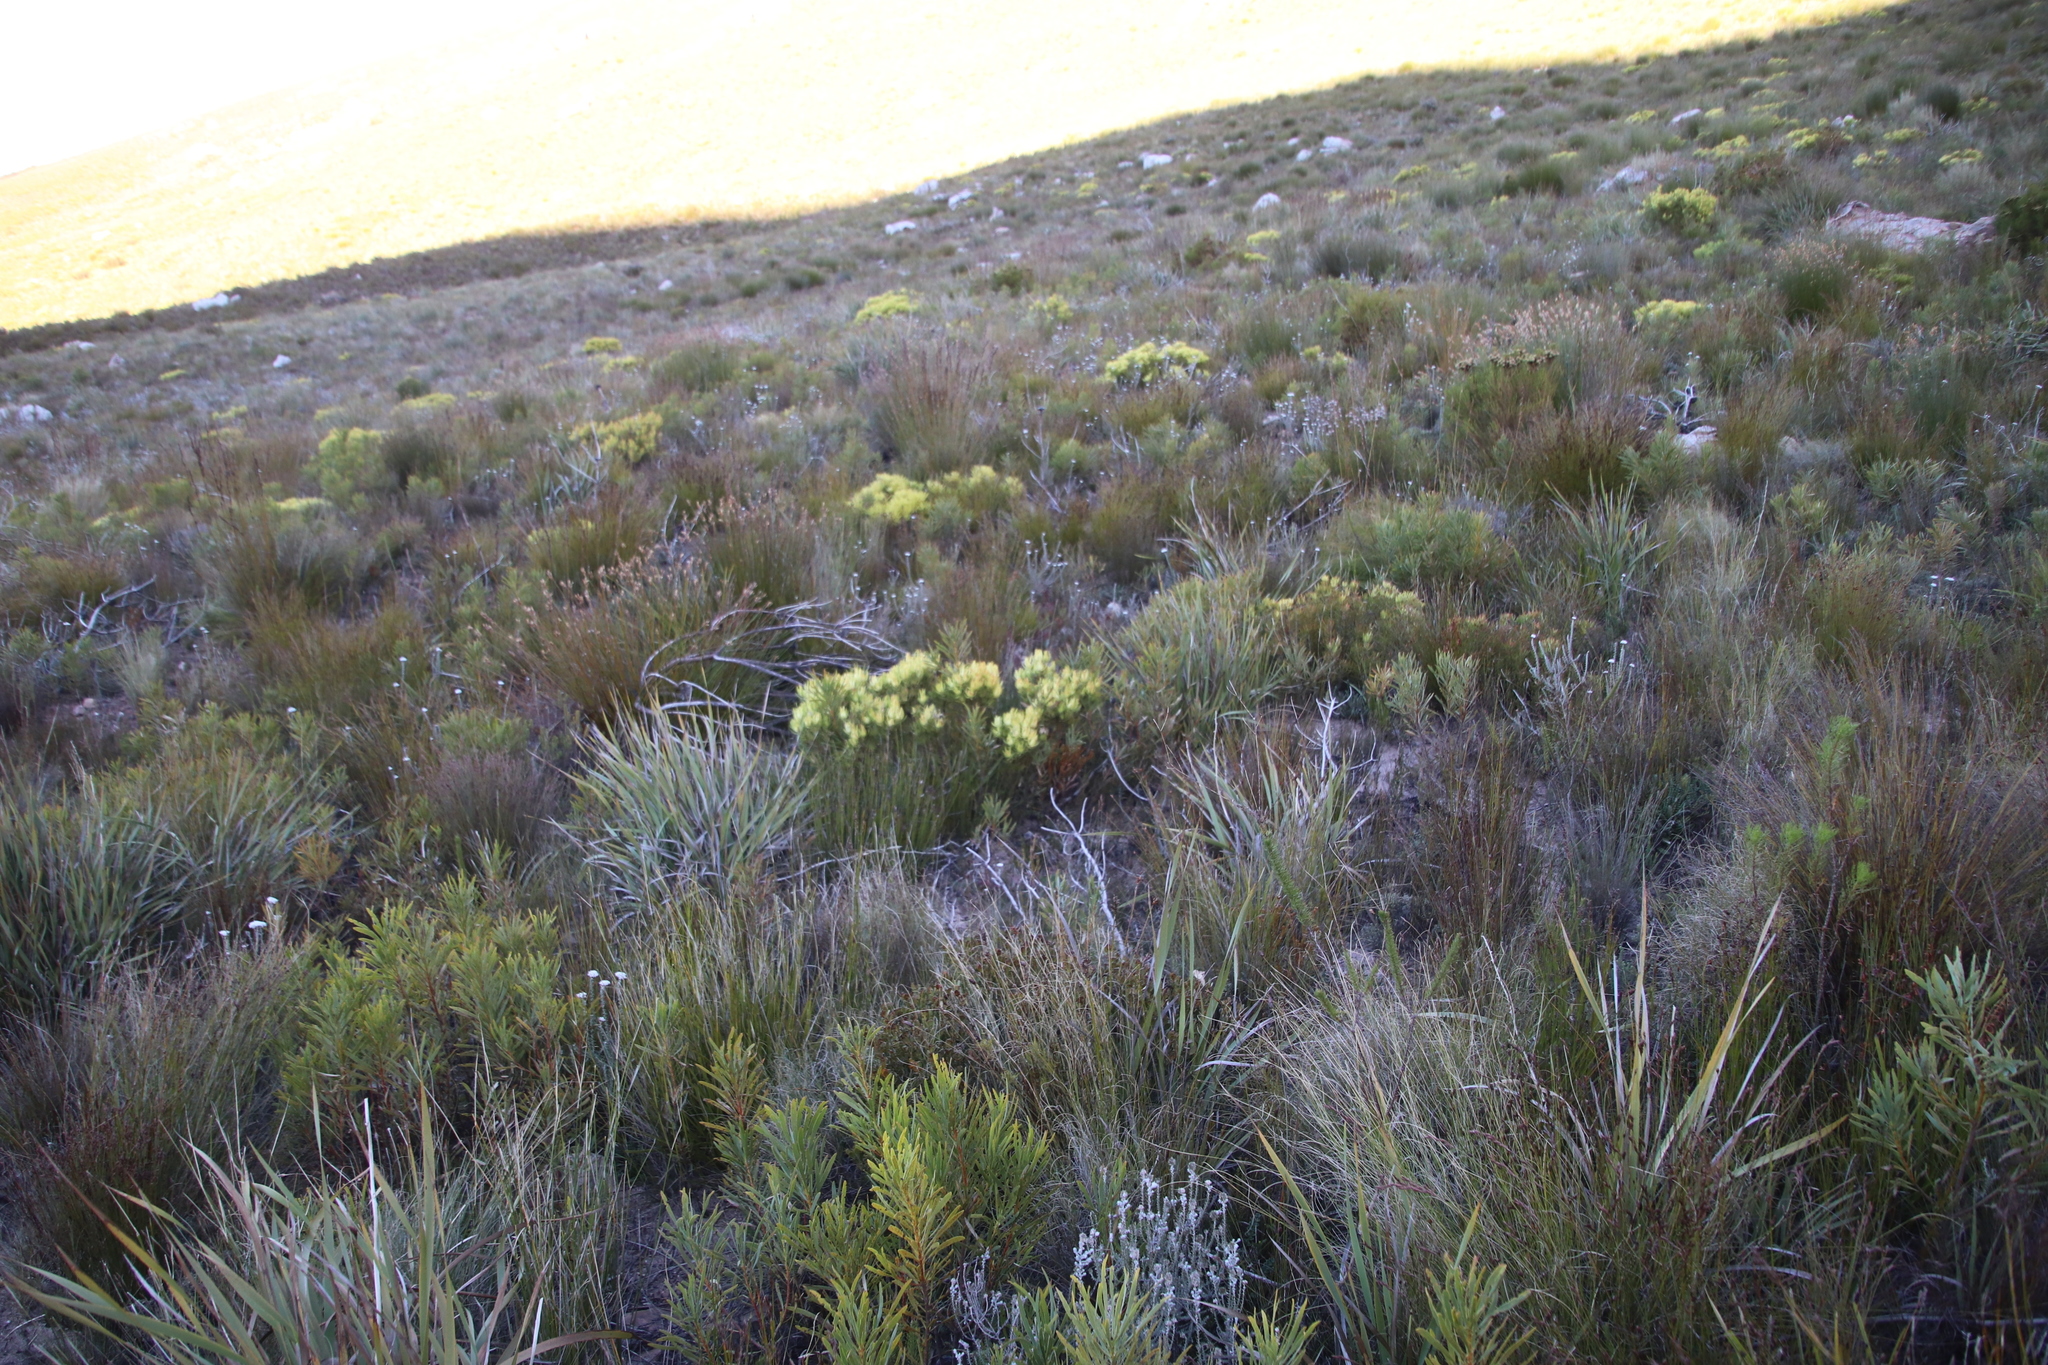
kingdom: Plantae
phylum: Tracheophyta
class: Magnoliopsida
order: Proteales
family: Proteaceae
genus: Leucadendron
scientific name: Leucadendron salignum
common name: Common sunshine conebush
